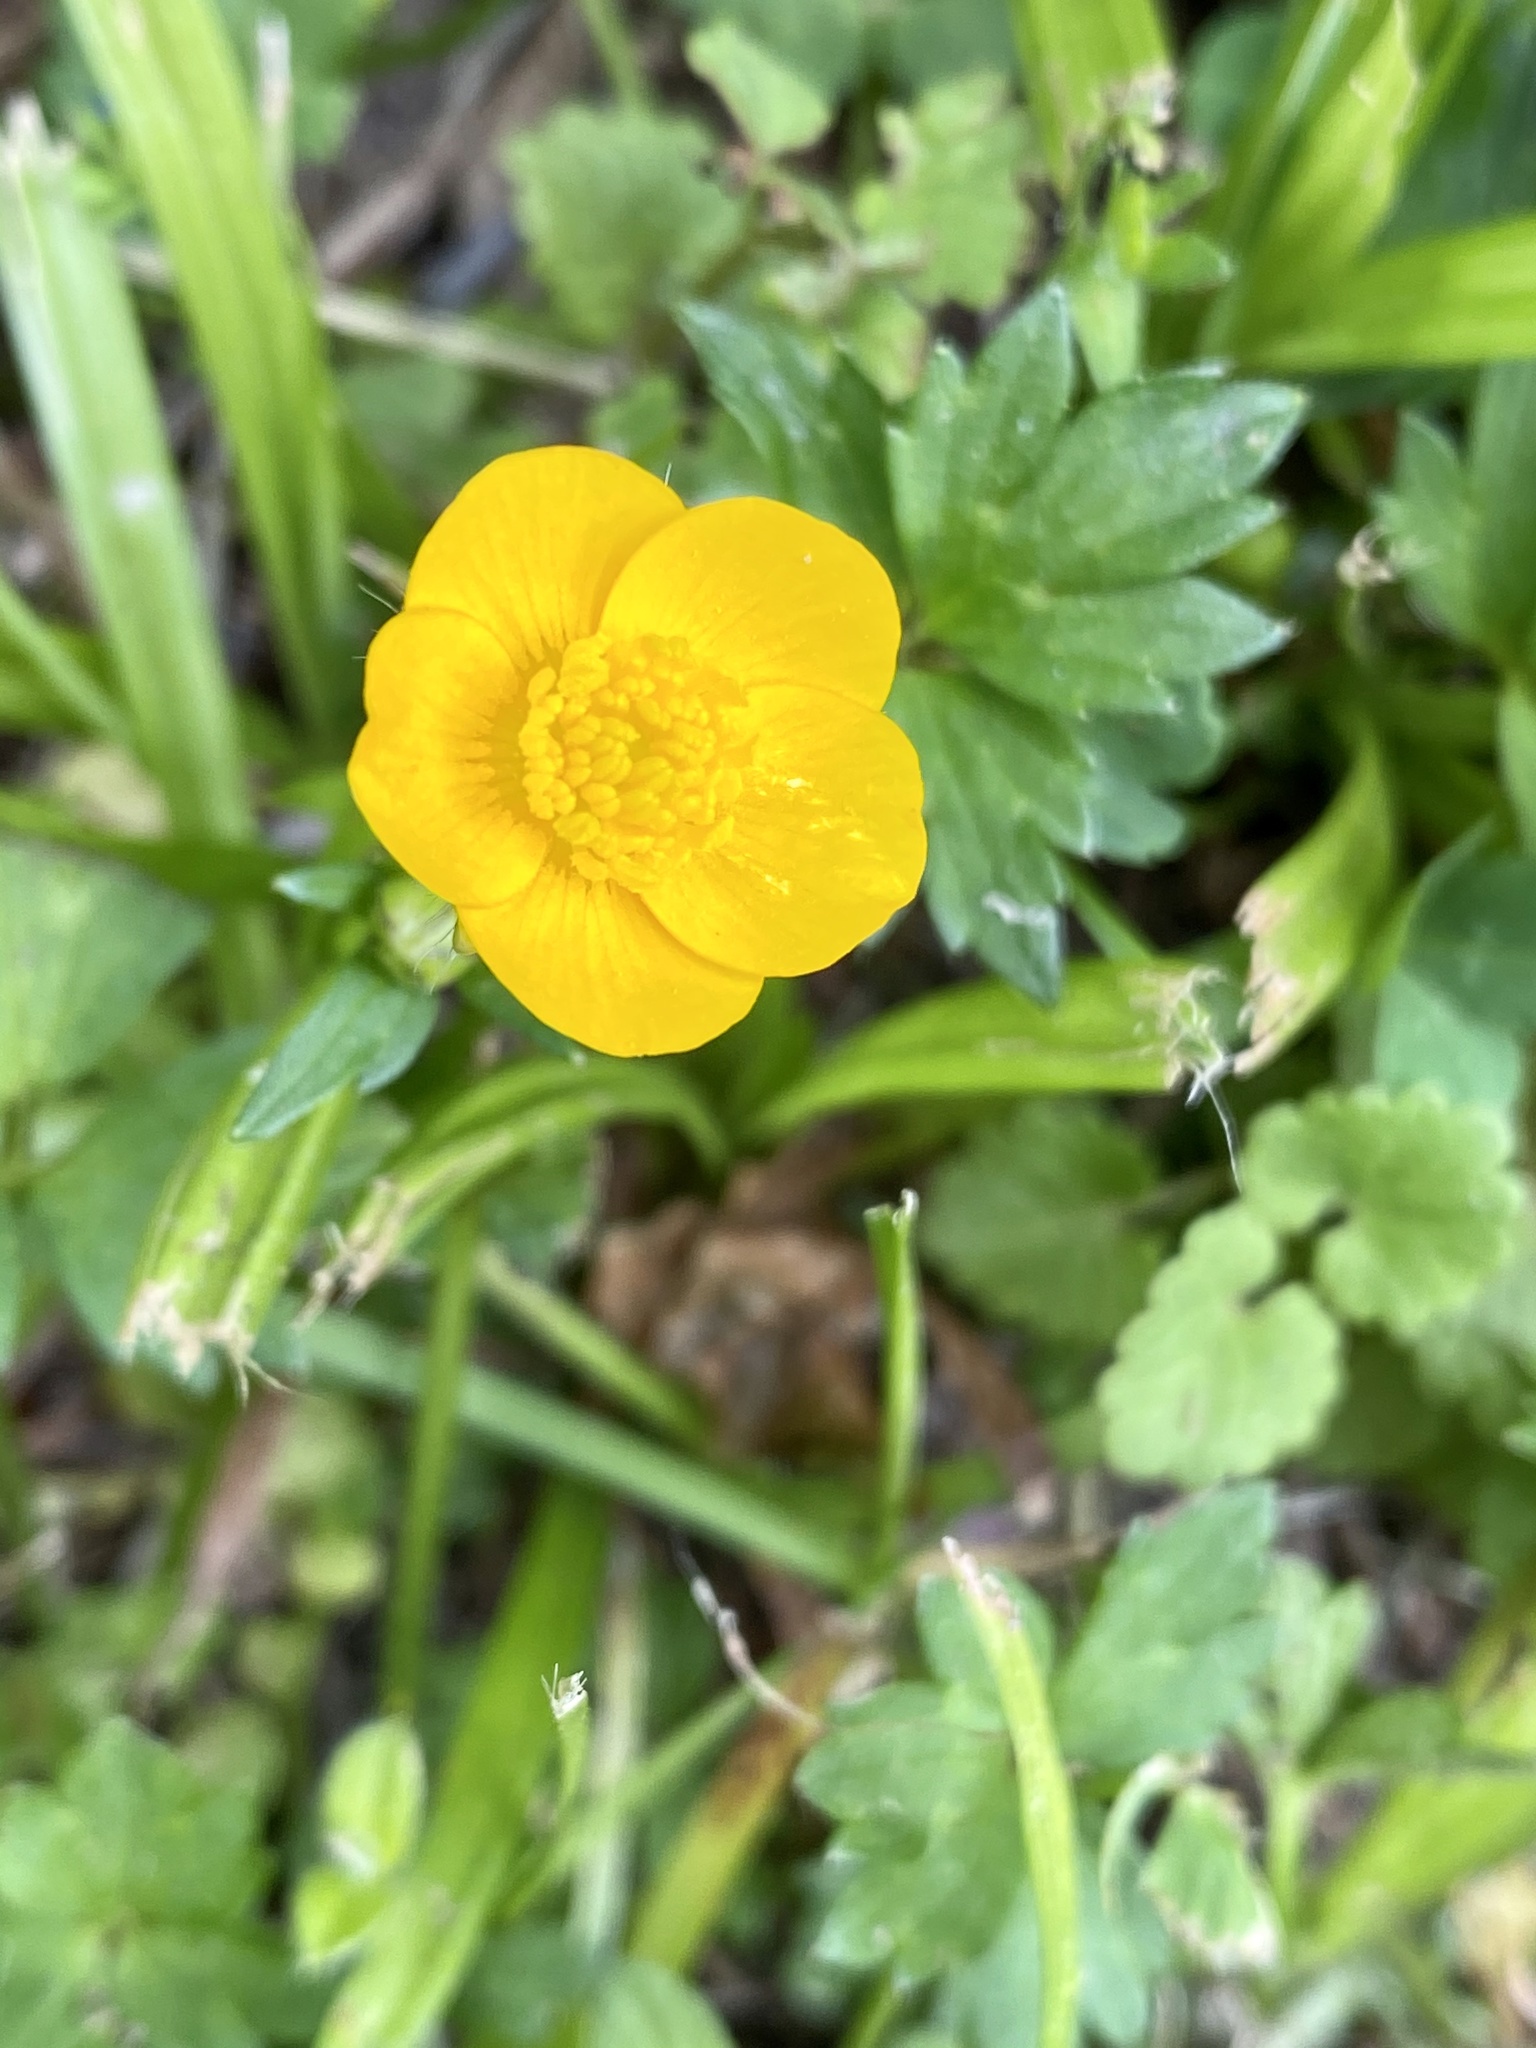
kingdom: Plantae
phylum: Tracheophyta
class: Magnoliopsida
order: Ranunculales
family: Ranunculaceae
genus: Ranunculus
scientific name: Ranunculus repens
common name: Creeping buttercup
